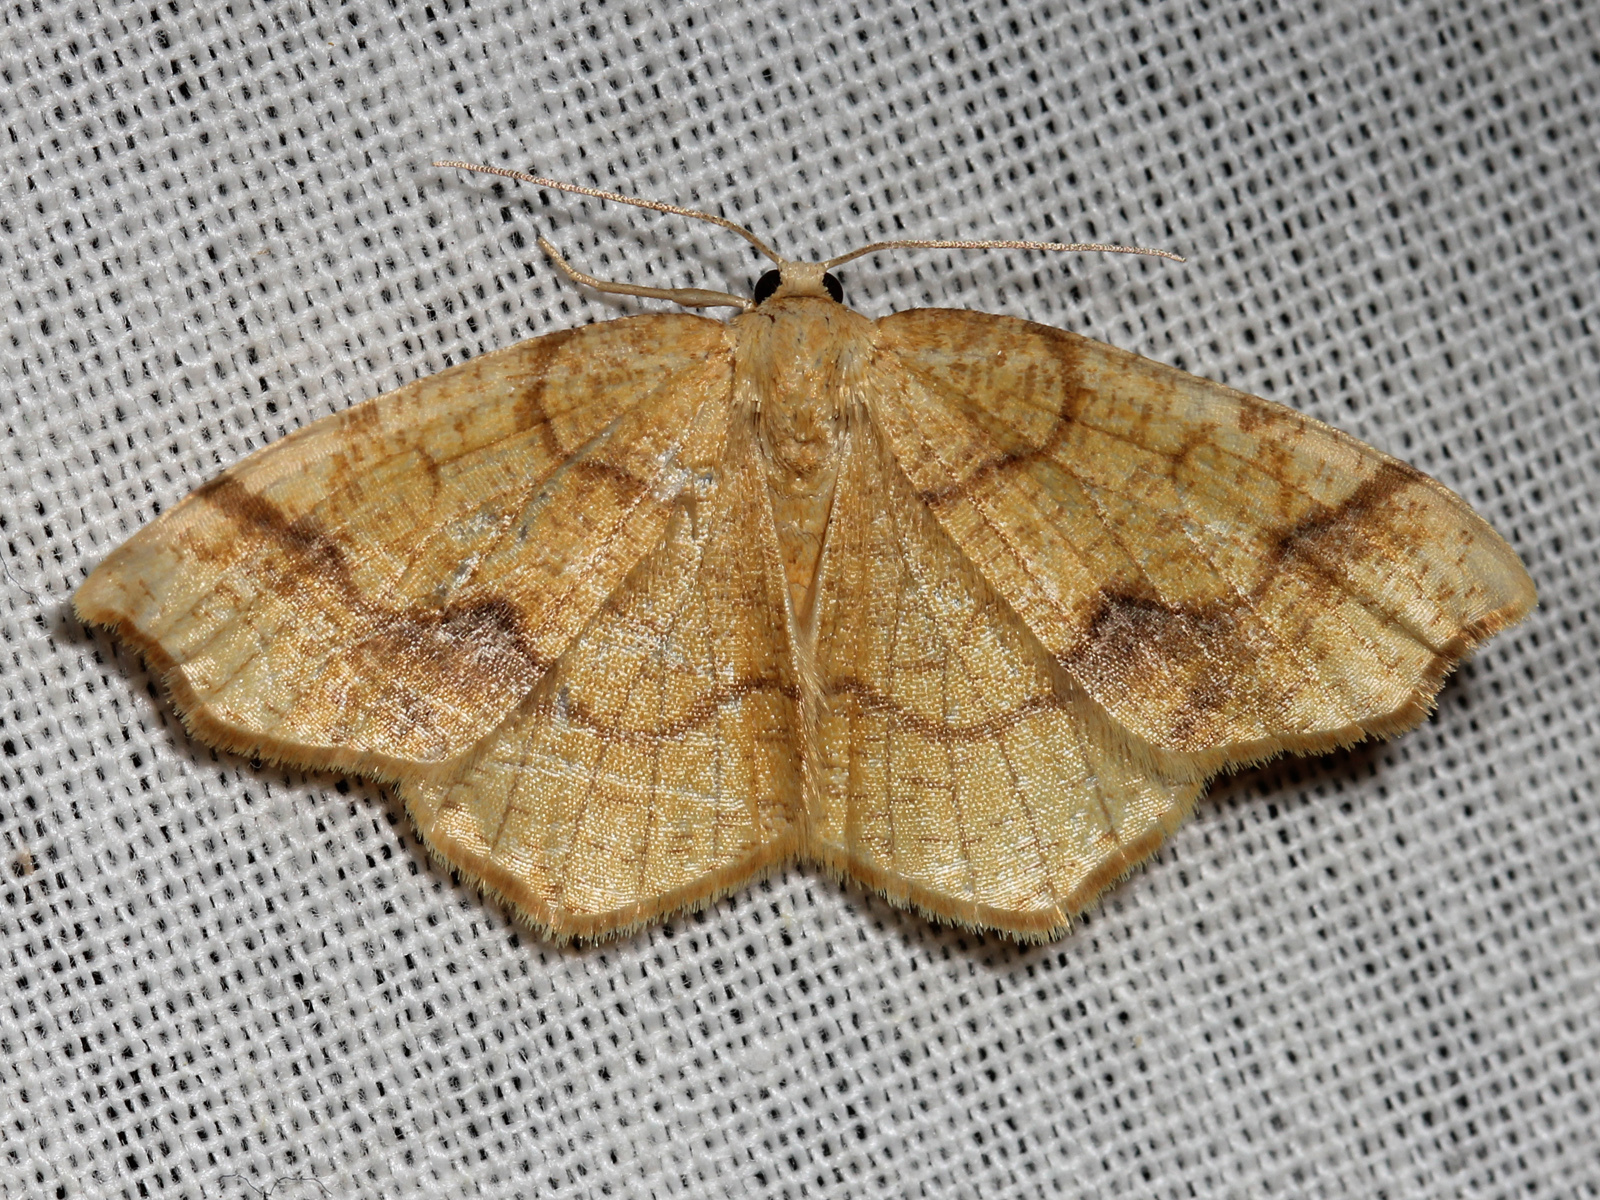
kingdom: Animalia
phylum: Arthropoda
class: Insecta
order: Lepidoptera
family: Geometridae
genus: Nematocampa
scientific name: Nematocampa brehmeata
